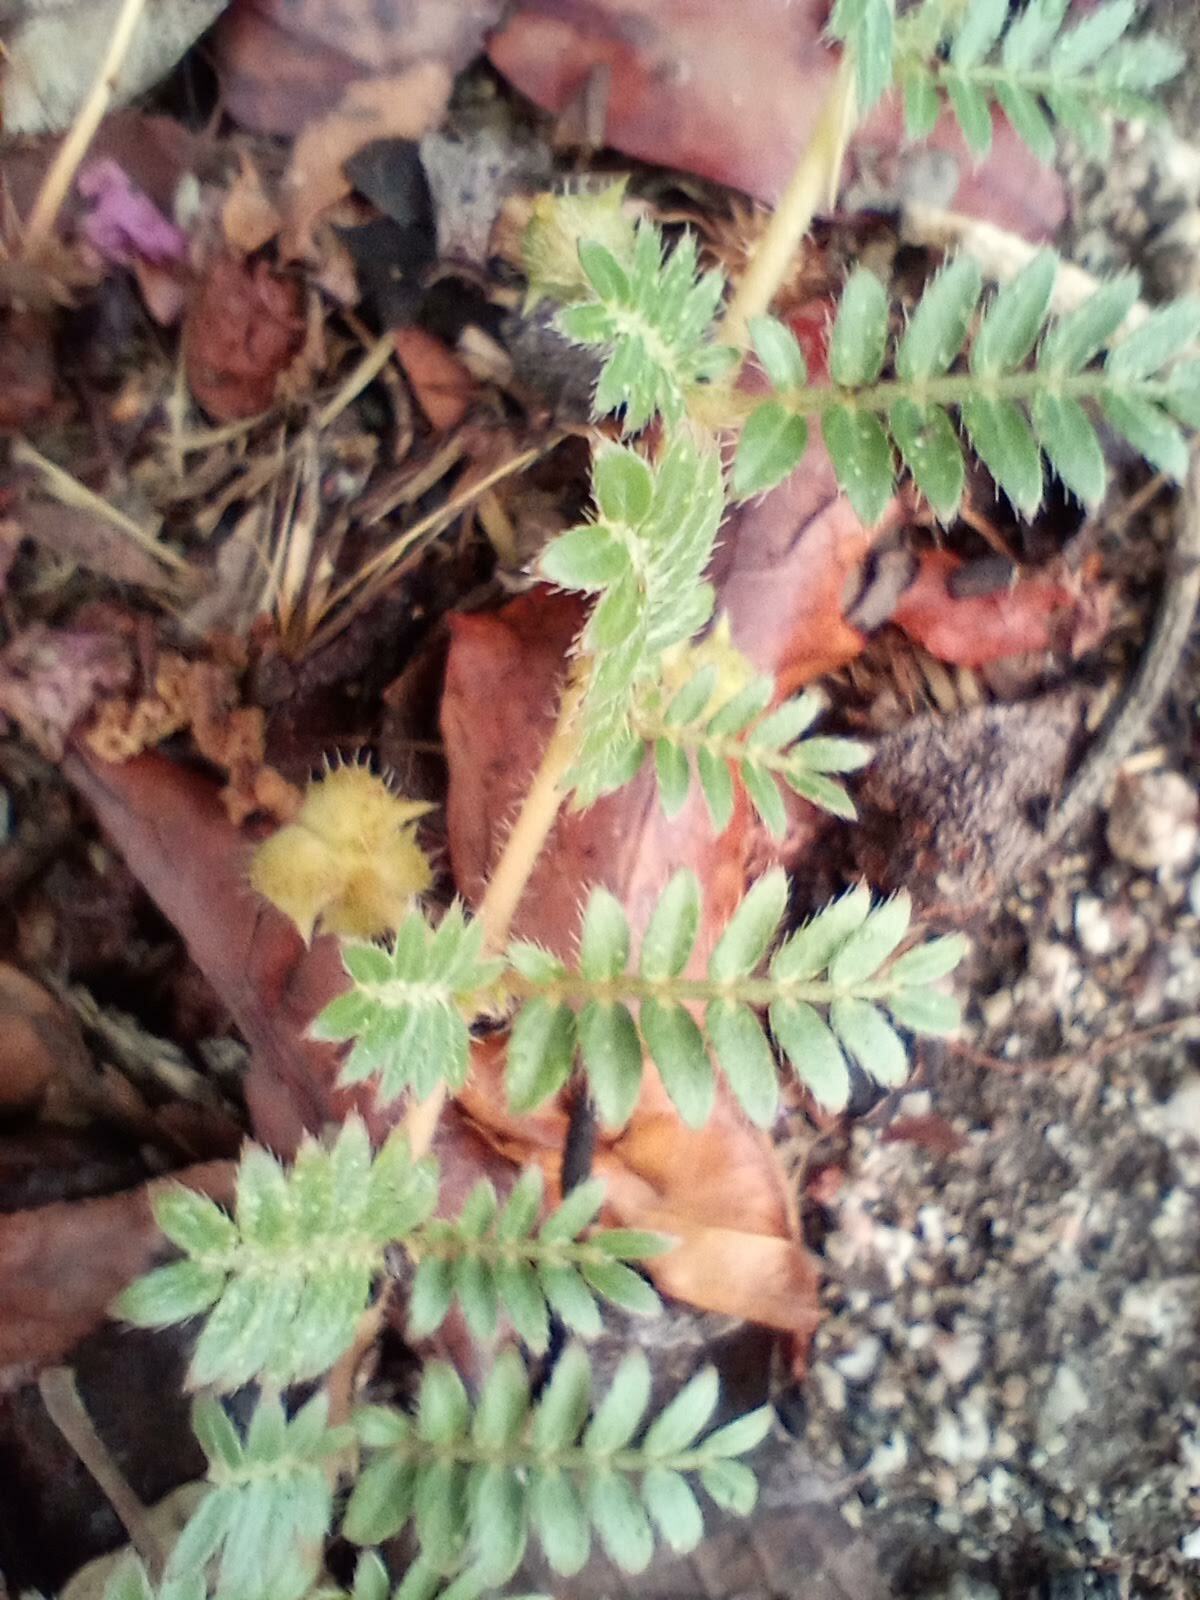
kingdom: Plantae
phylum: Tracheophyta
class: Magnoliopsida
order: Zygophyllales
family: Zygophyllaceae
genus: Tribulus
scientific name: Tribulus terrestris
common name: Puncturevine
